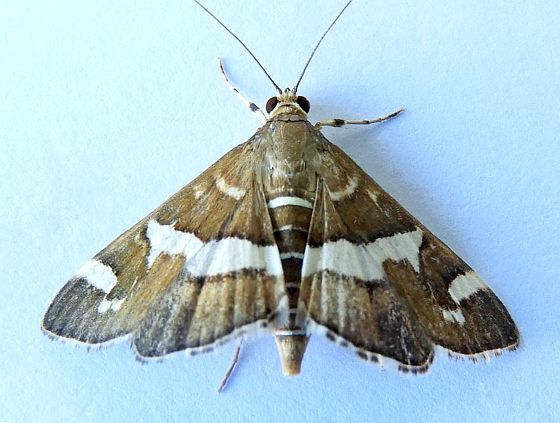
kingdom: Animalia
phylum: Arthropoda
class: Insecta
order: Lepidoptera
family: Crambidae
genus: Spoladea
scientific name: Spoladea recurvalis
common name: Beet webworm moth
